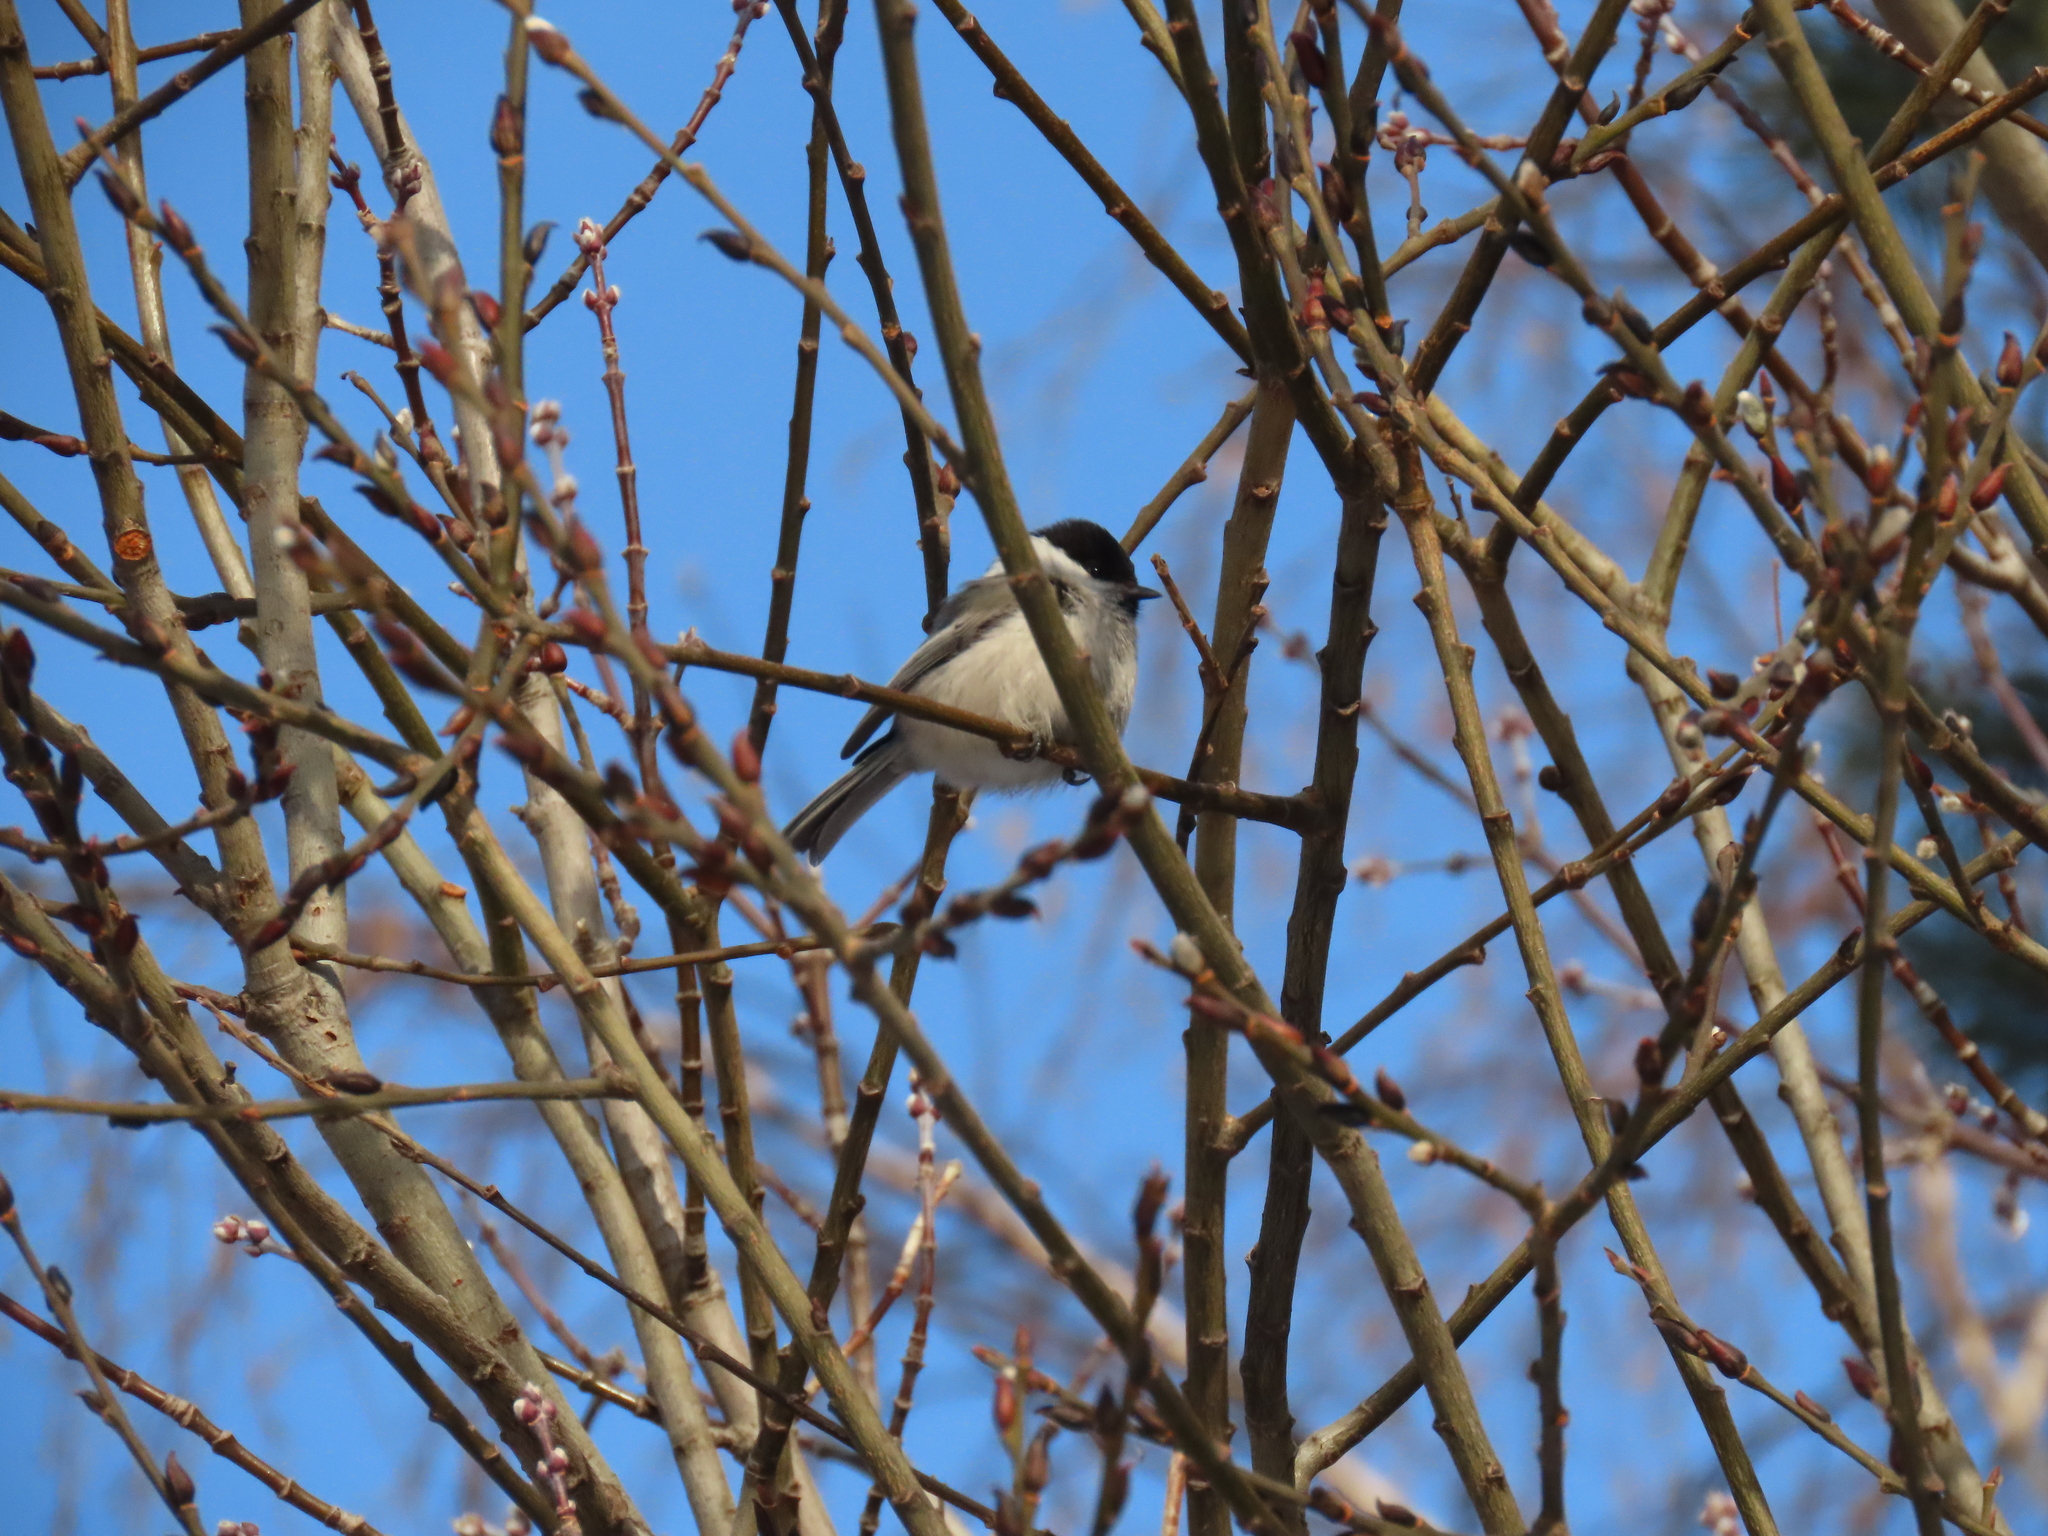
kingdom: Animalia
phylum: Chordata
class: Aves
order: Passeriformes
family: Paridae
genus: Poecile
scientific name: Poecile montanus
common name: Willow tit
